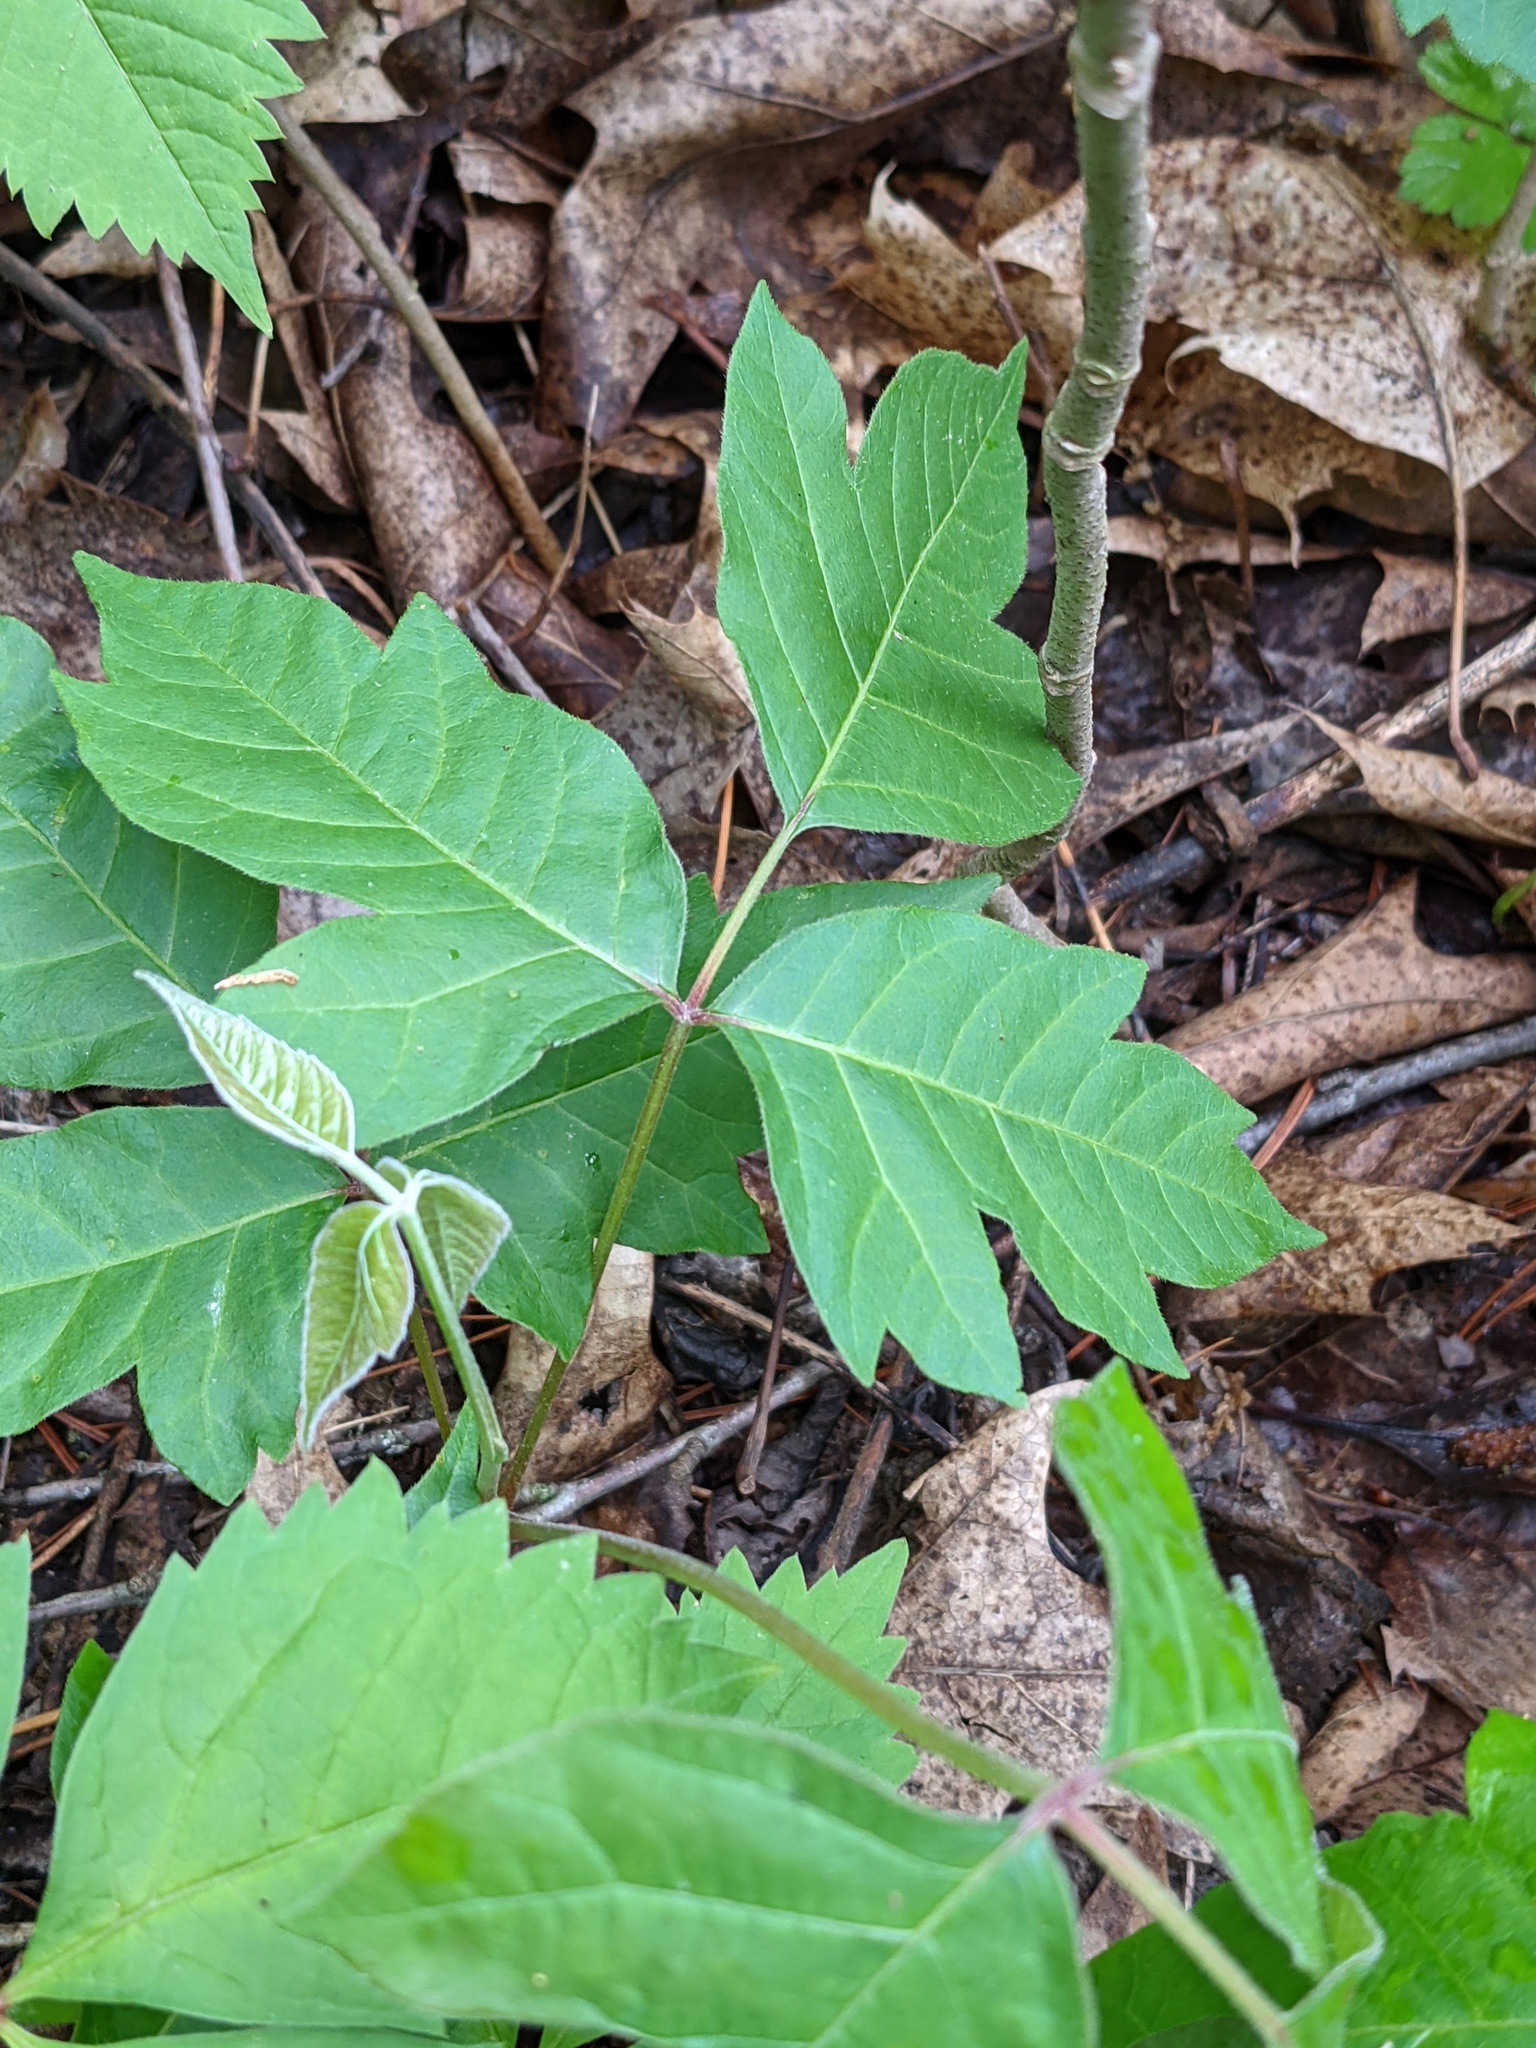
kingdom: Plantae
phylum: Tracheophyta
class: Magnoliopsida
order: Sapindales
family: Anacardiaceae
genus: Toxicodendron
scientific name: Toxicodendron radicans
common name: Poison ivy
